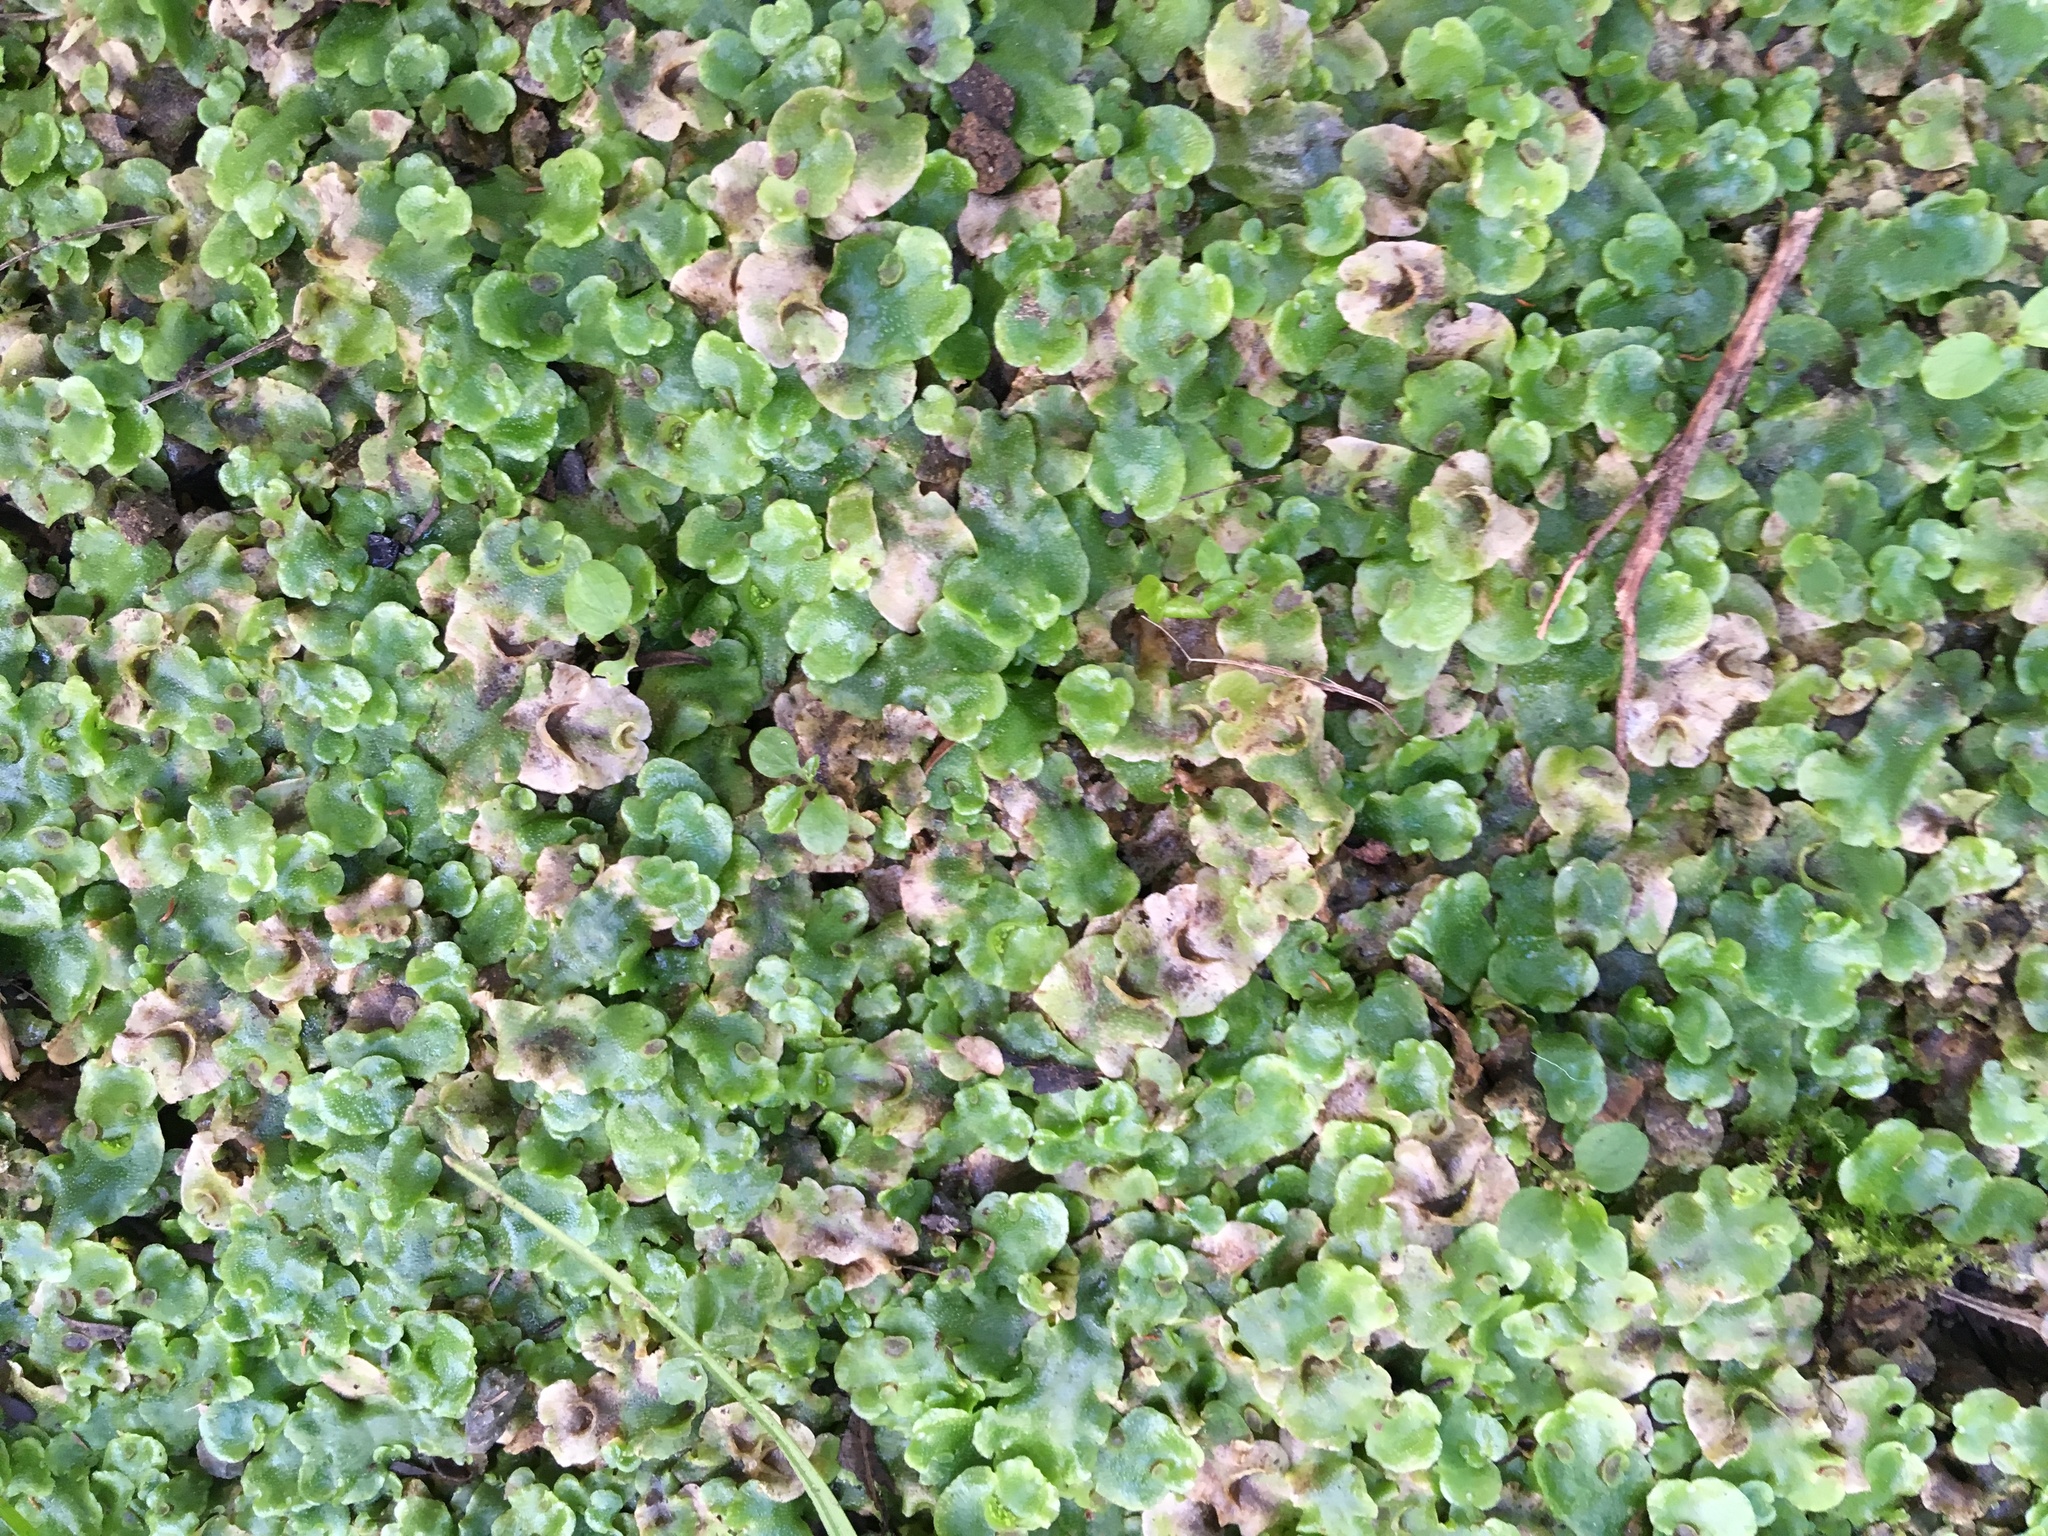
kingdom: Plantae
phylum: Marchantiophyta
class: Marchantiopsida
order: Lunulariales
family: Lunulariaceae
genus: Lunularia
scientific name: Lunularia cruciata
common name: Crescent-cup liverwort
